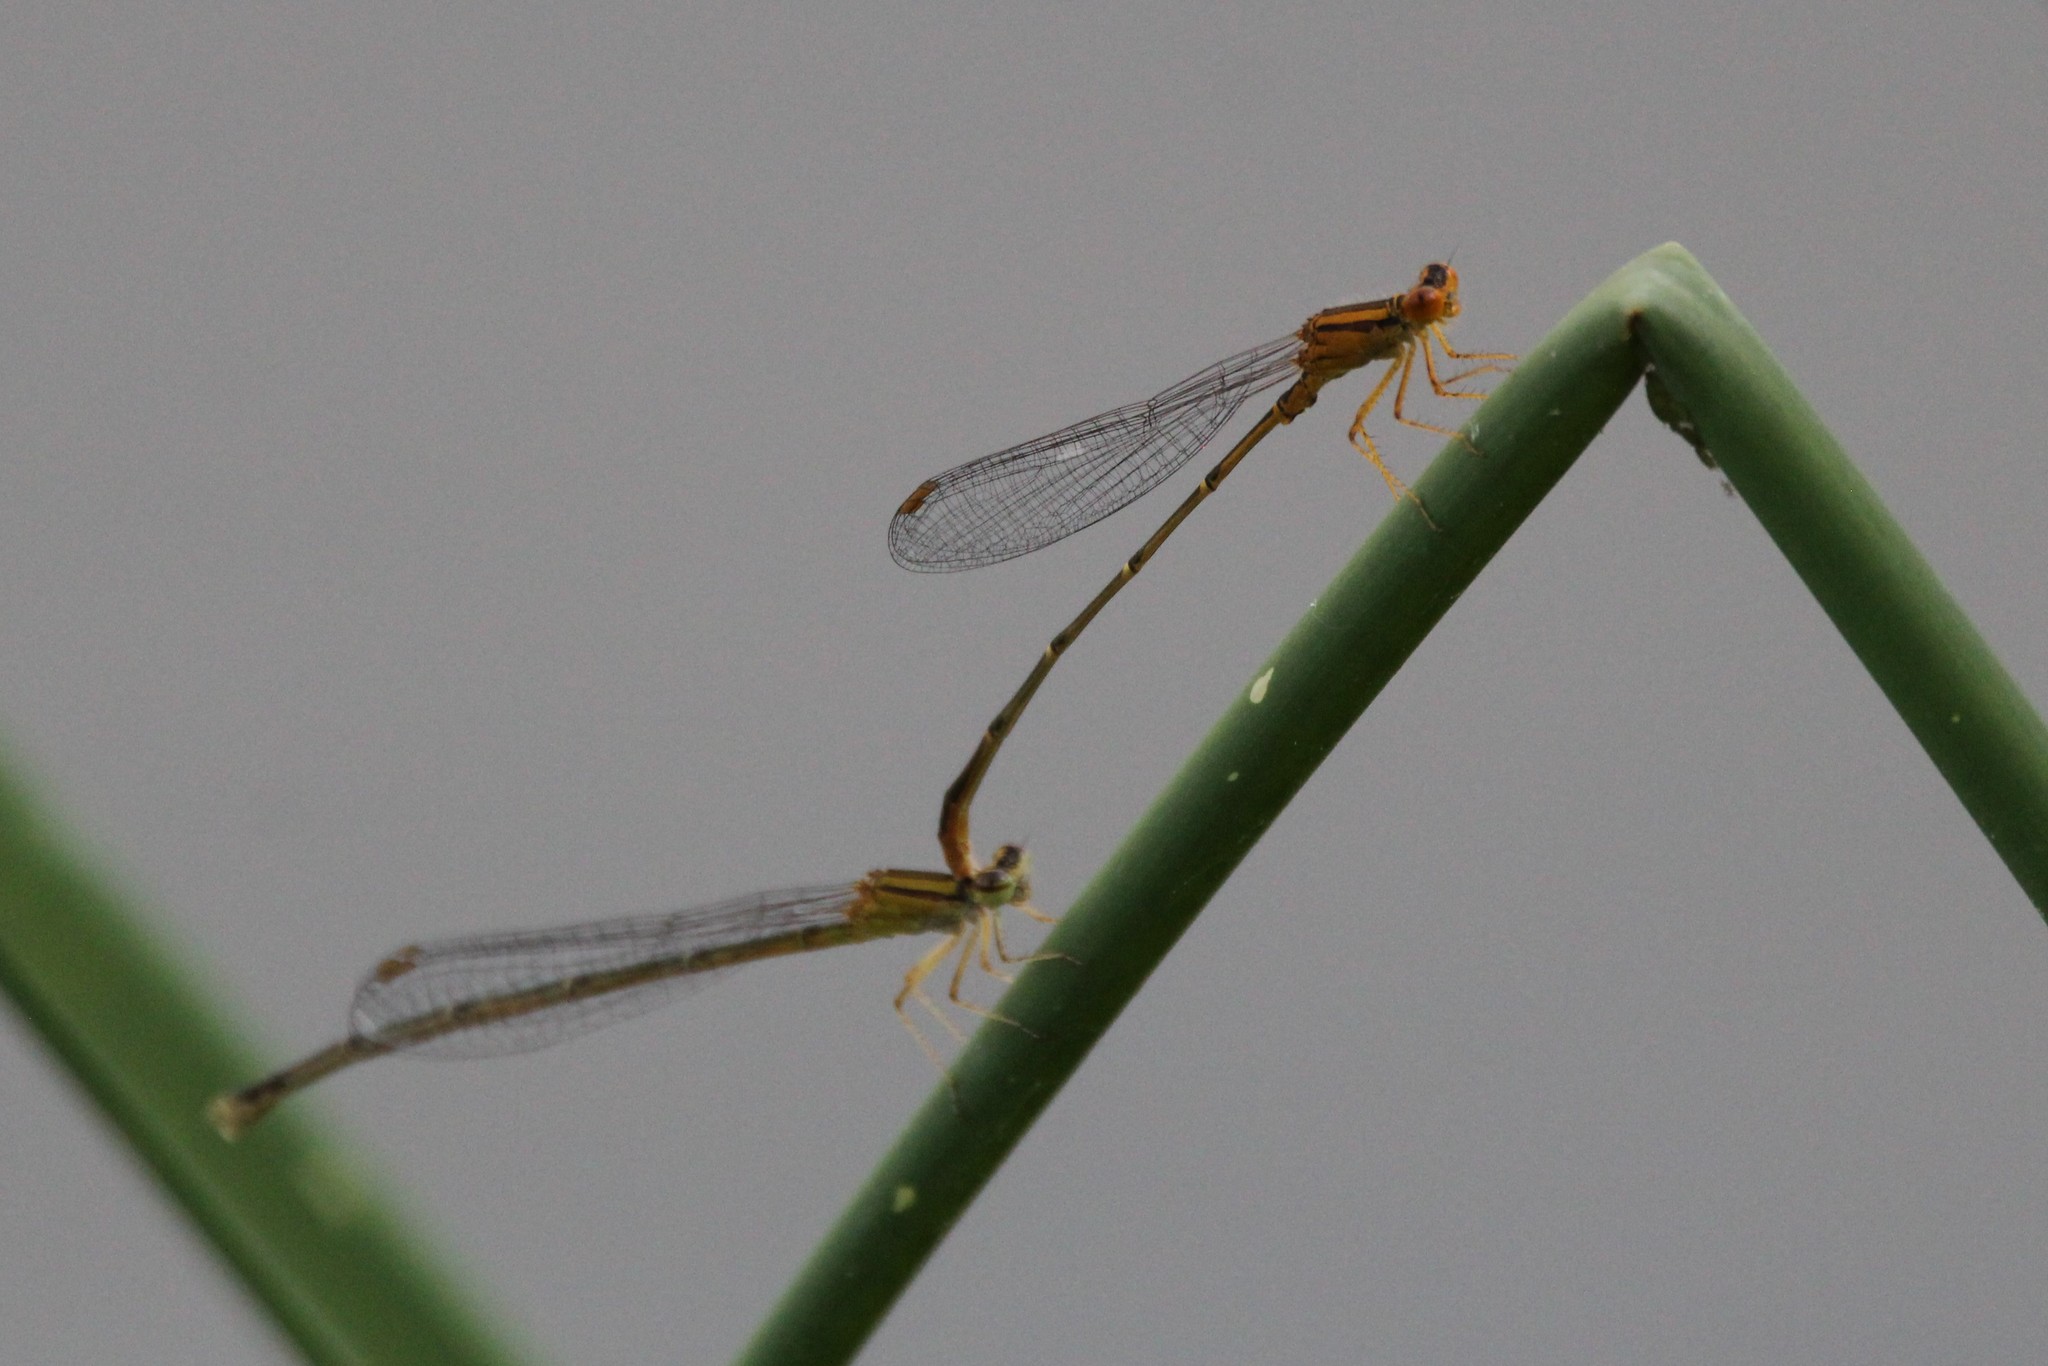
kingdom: Animalia
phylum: Arthropoda
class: Insecta
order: Odonata
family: Coenagrionidae
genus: Enallagma
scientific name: Enallagma signatum
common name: Orange bluet
